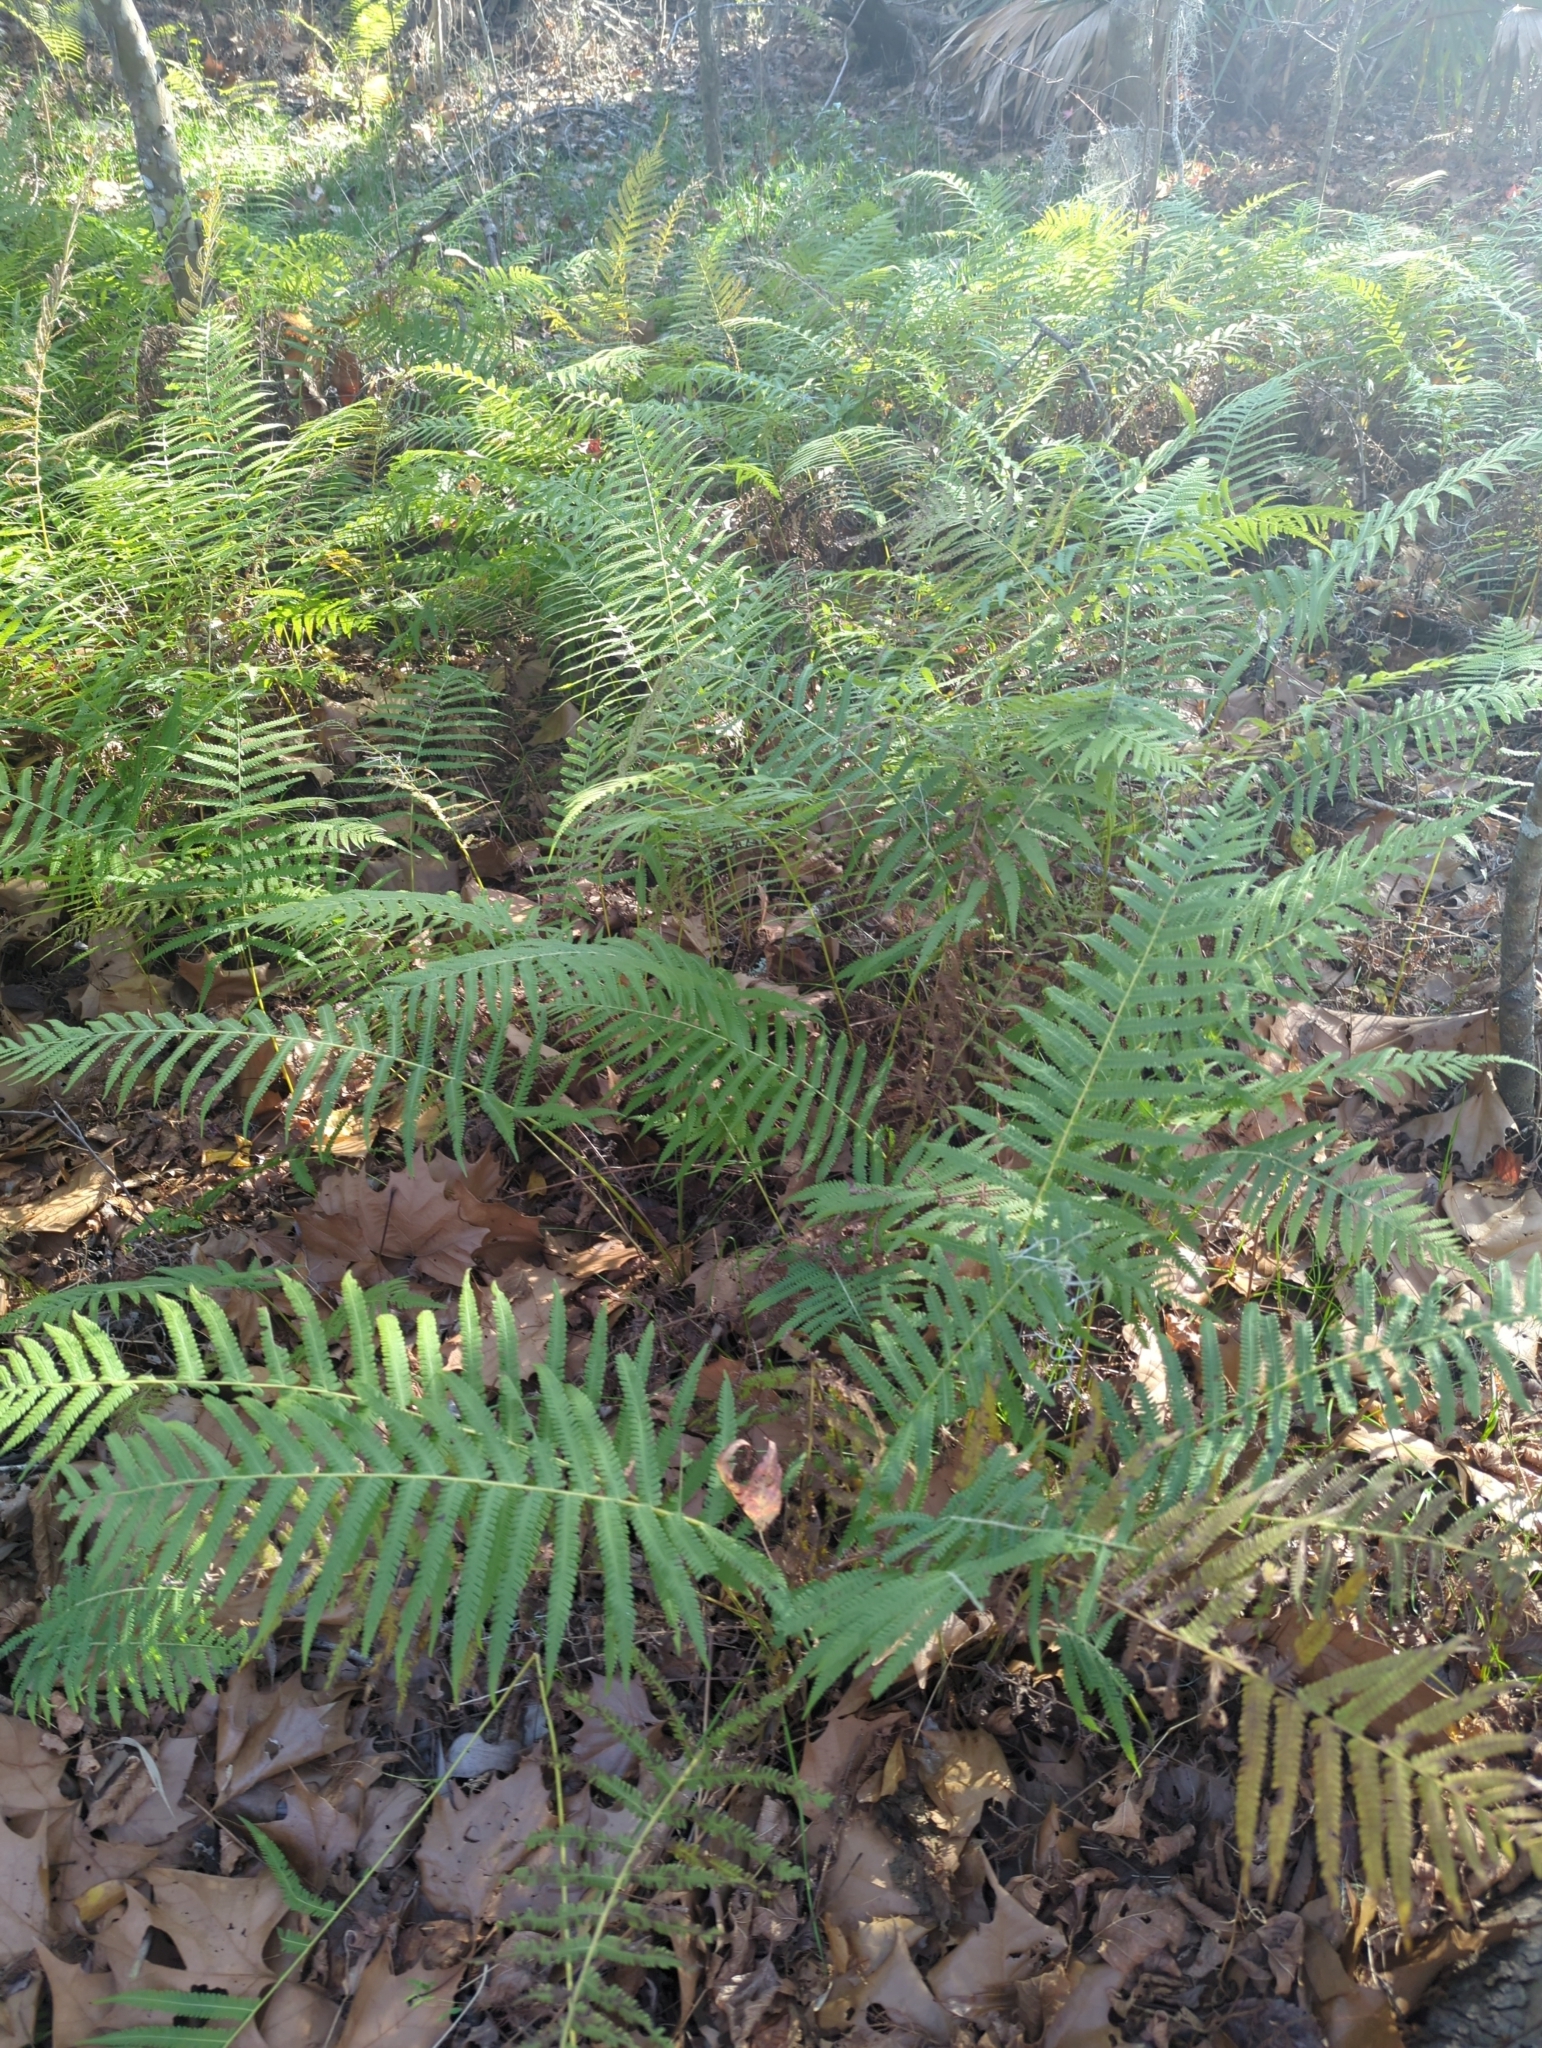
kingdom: Plantae
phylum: Tracheophyta
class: Polypodiopsida
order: Polypodiales
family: Thelypteridaceae
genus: Pelazoneuron
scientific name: Pelazoneuron kunthii
